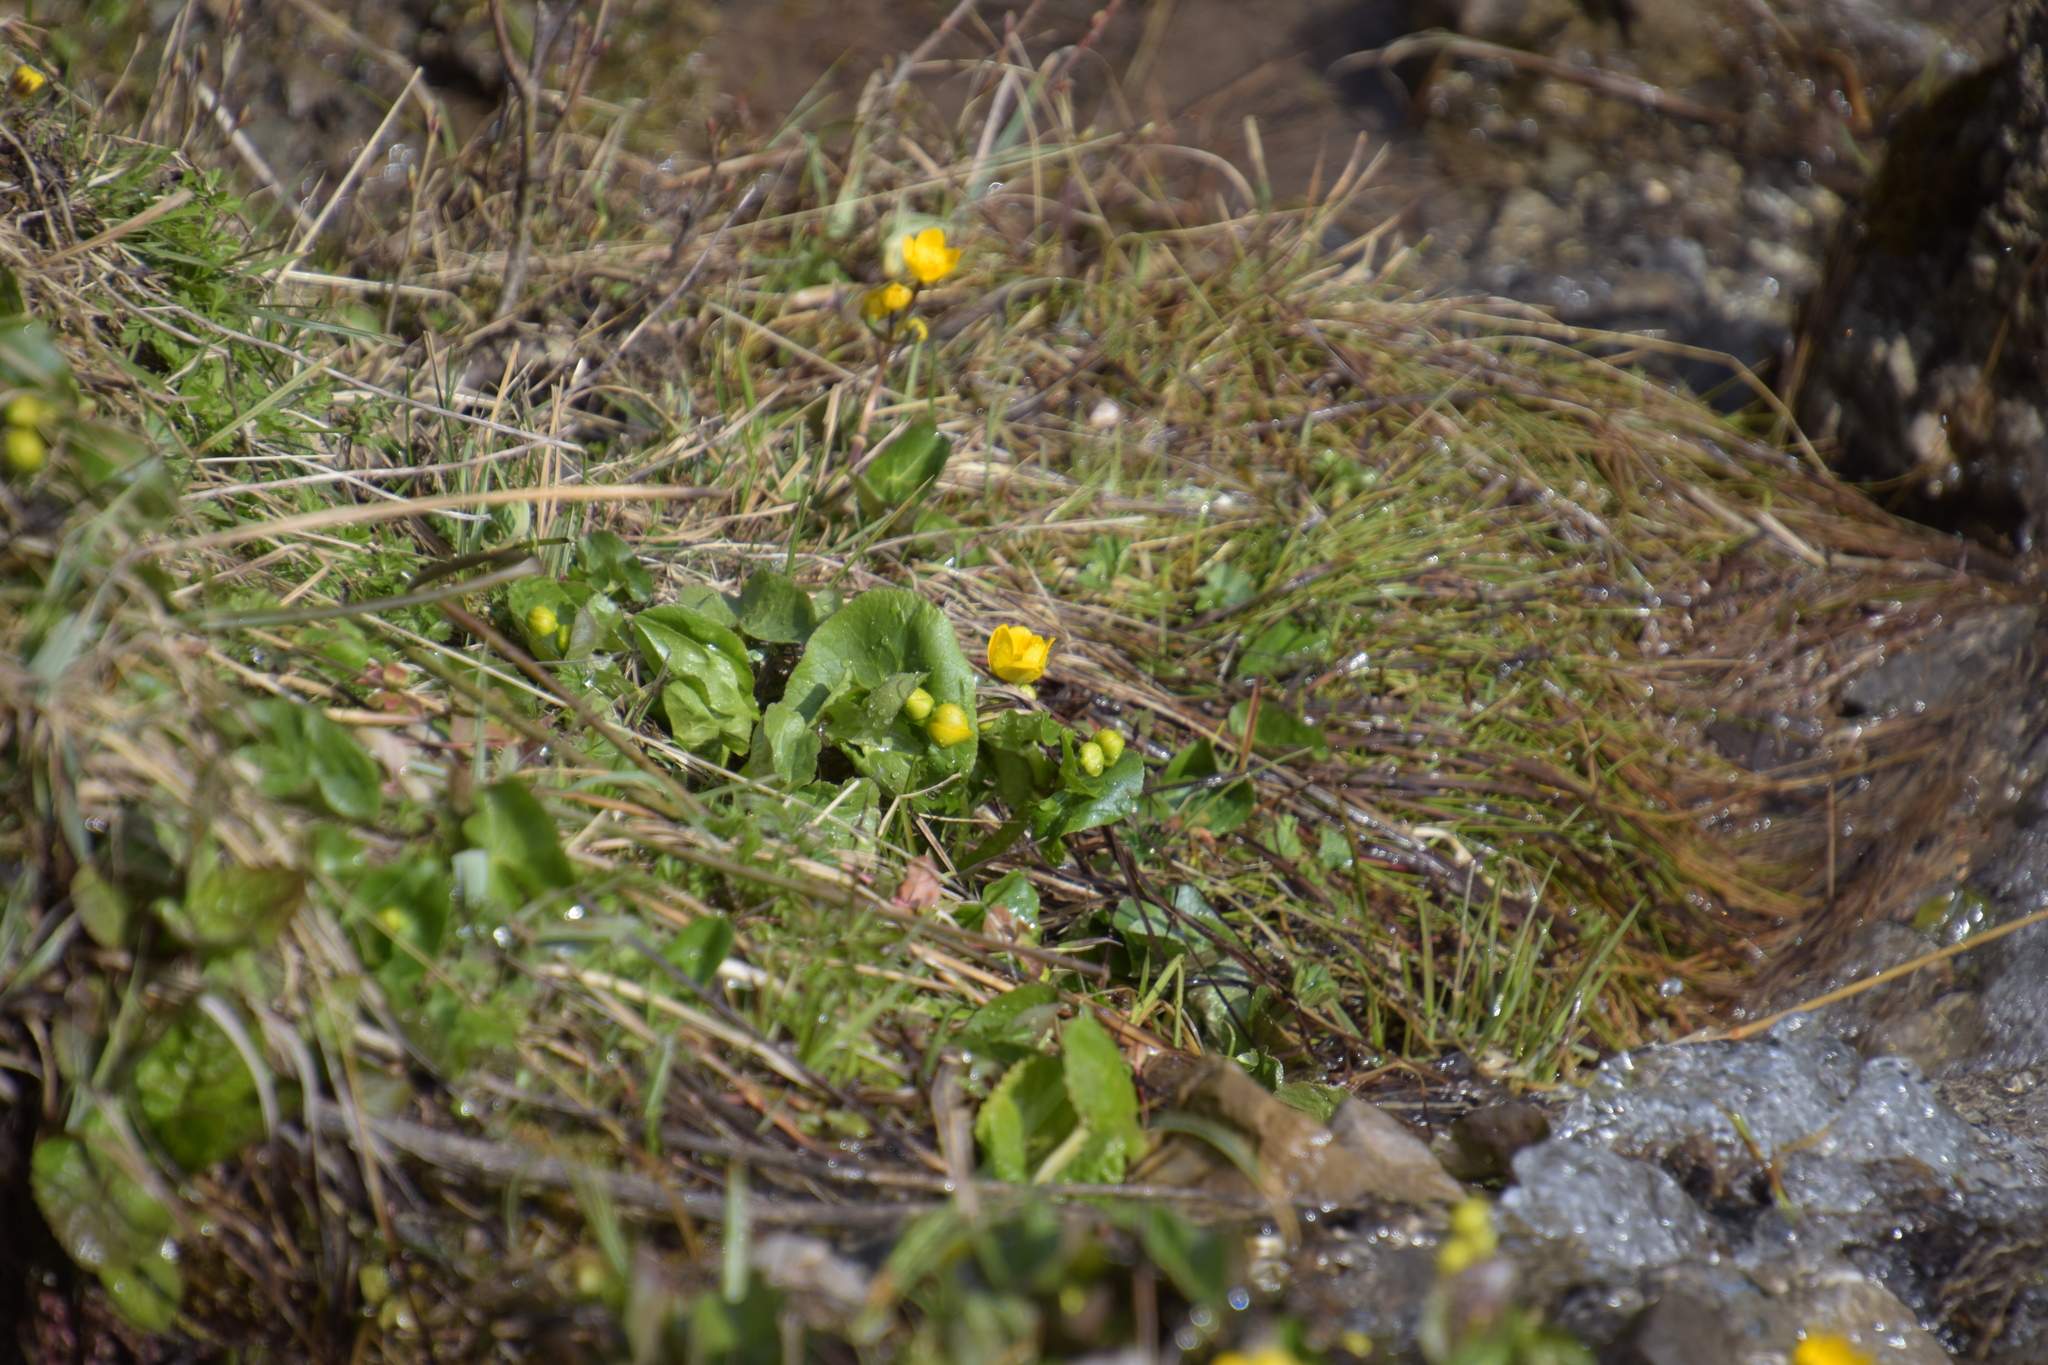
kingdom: Plantae
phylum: Tracheophyta
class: Magnoliopsida
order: Ranunculales
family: Ranunculaceae
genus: Caltha
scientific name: Caltha palustris
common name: Marsh marigold
